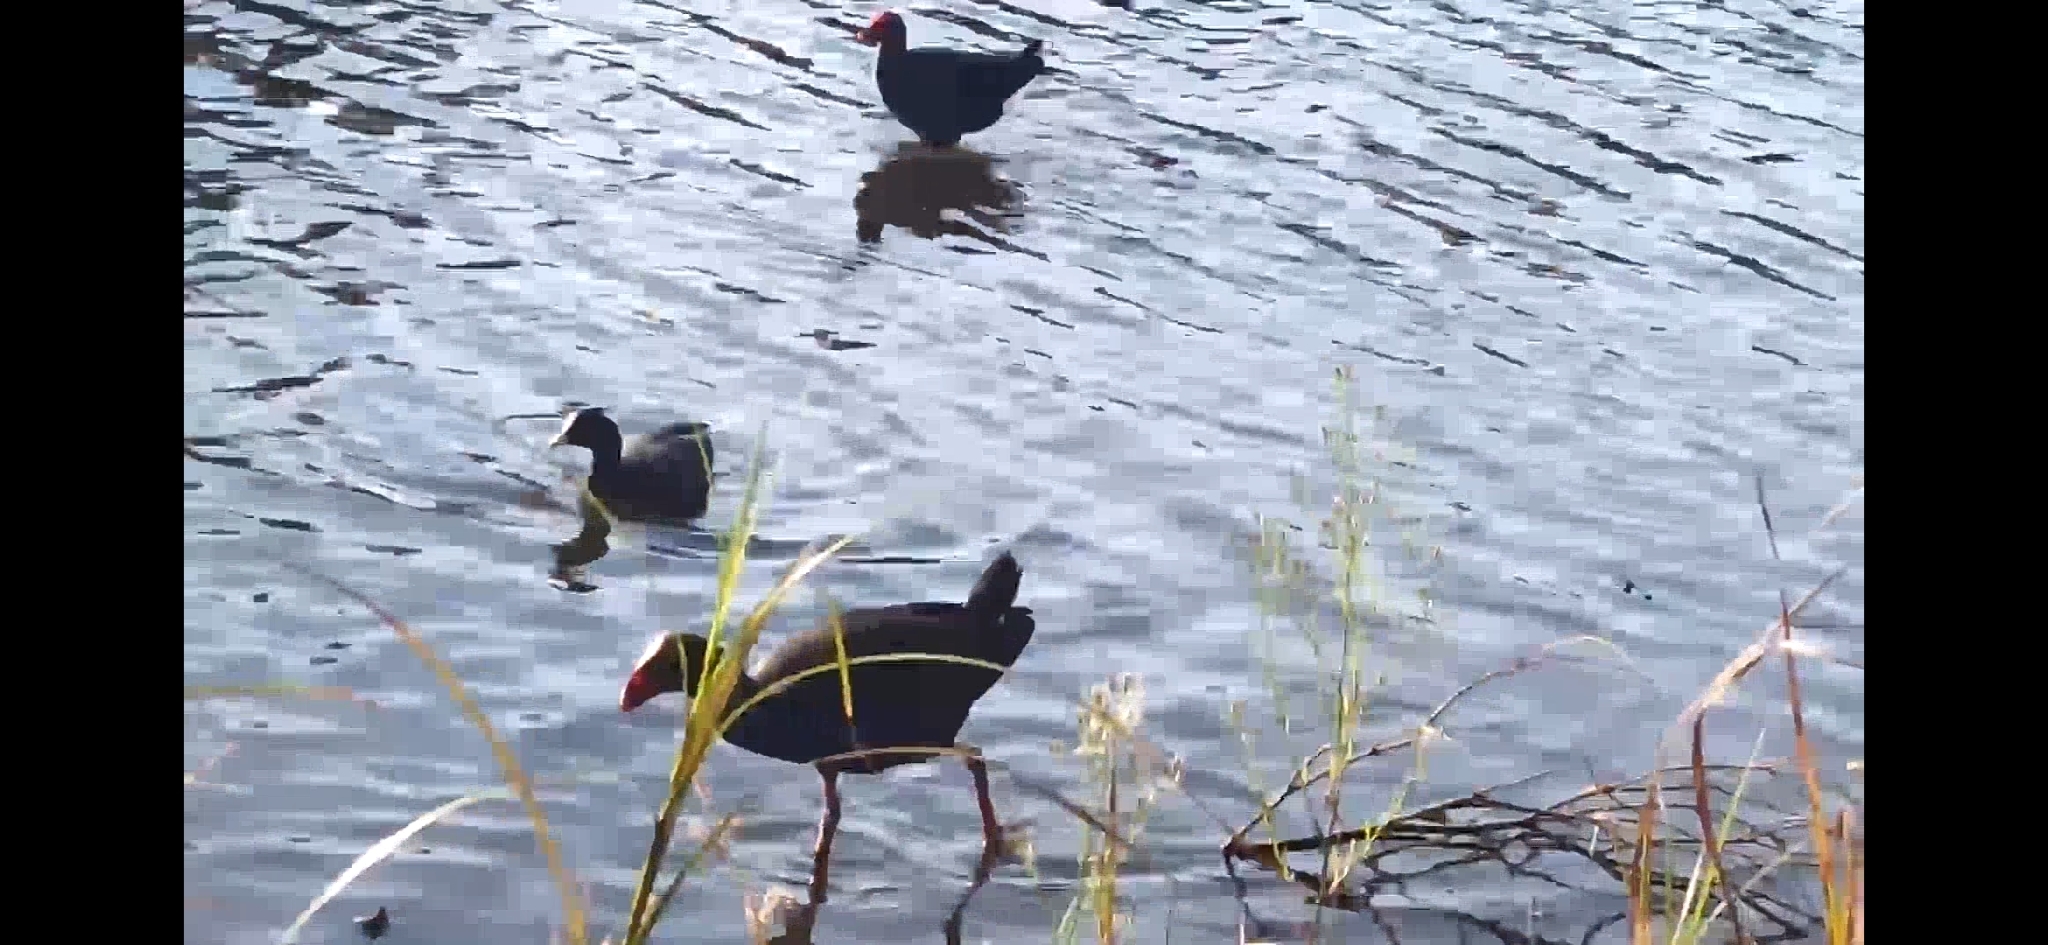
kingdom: Animalia
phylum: Chordata
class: Aves
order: Gruiformes
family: Rallidae
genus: Fulica
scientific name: Fulica atra
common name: Eurasian coot
